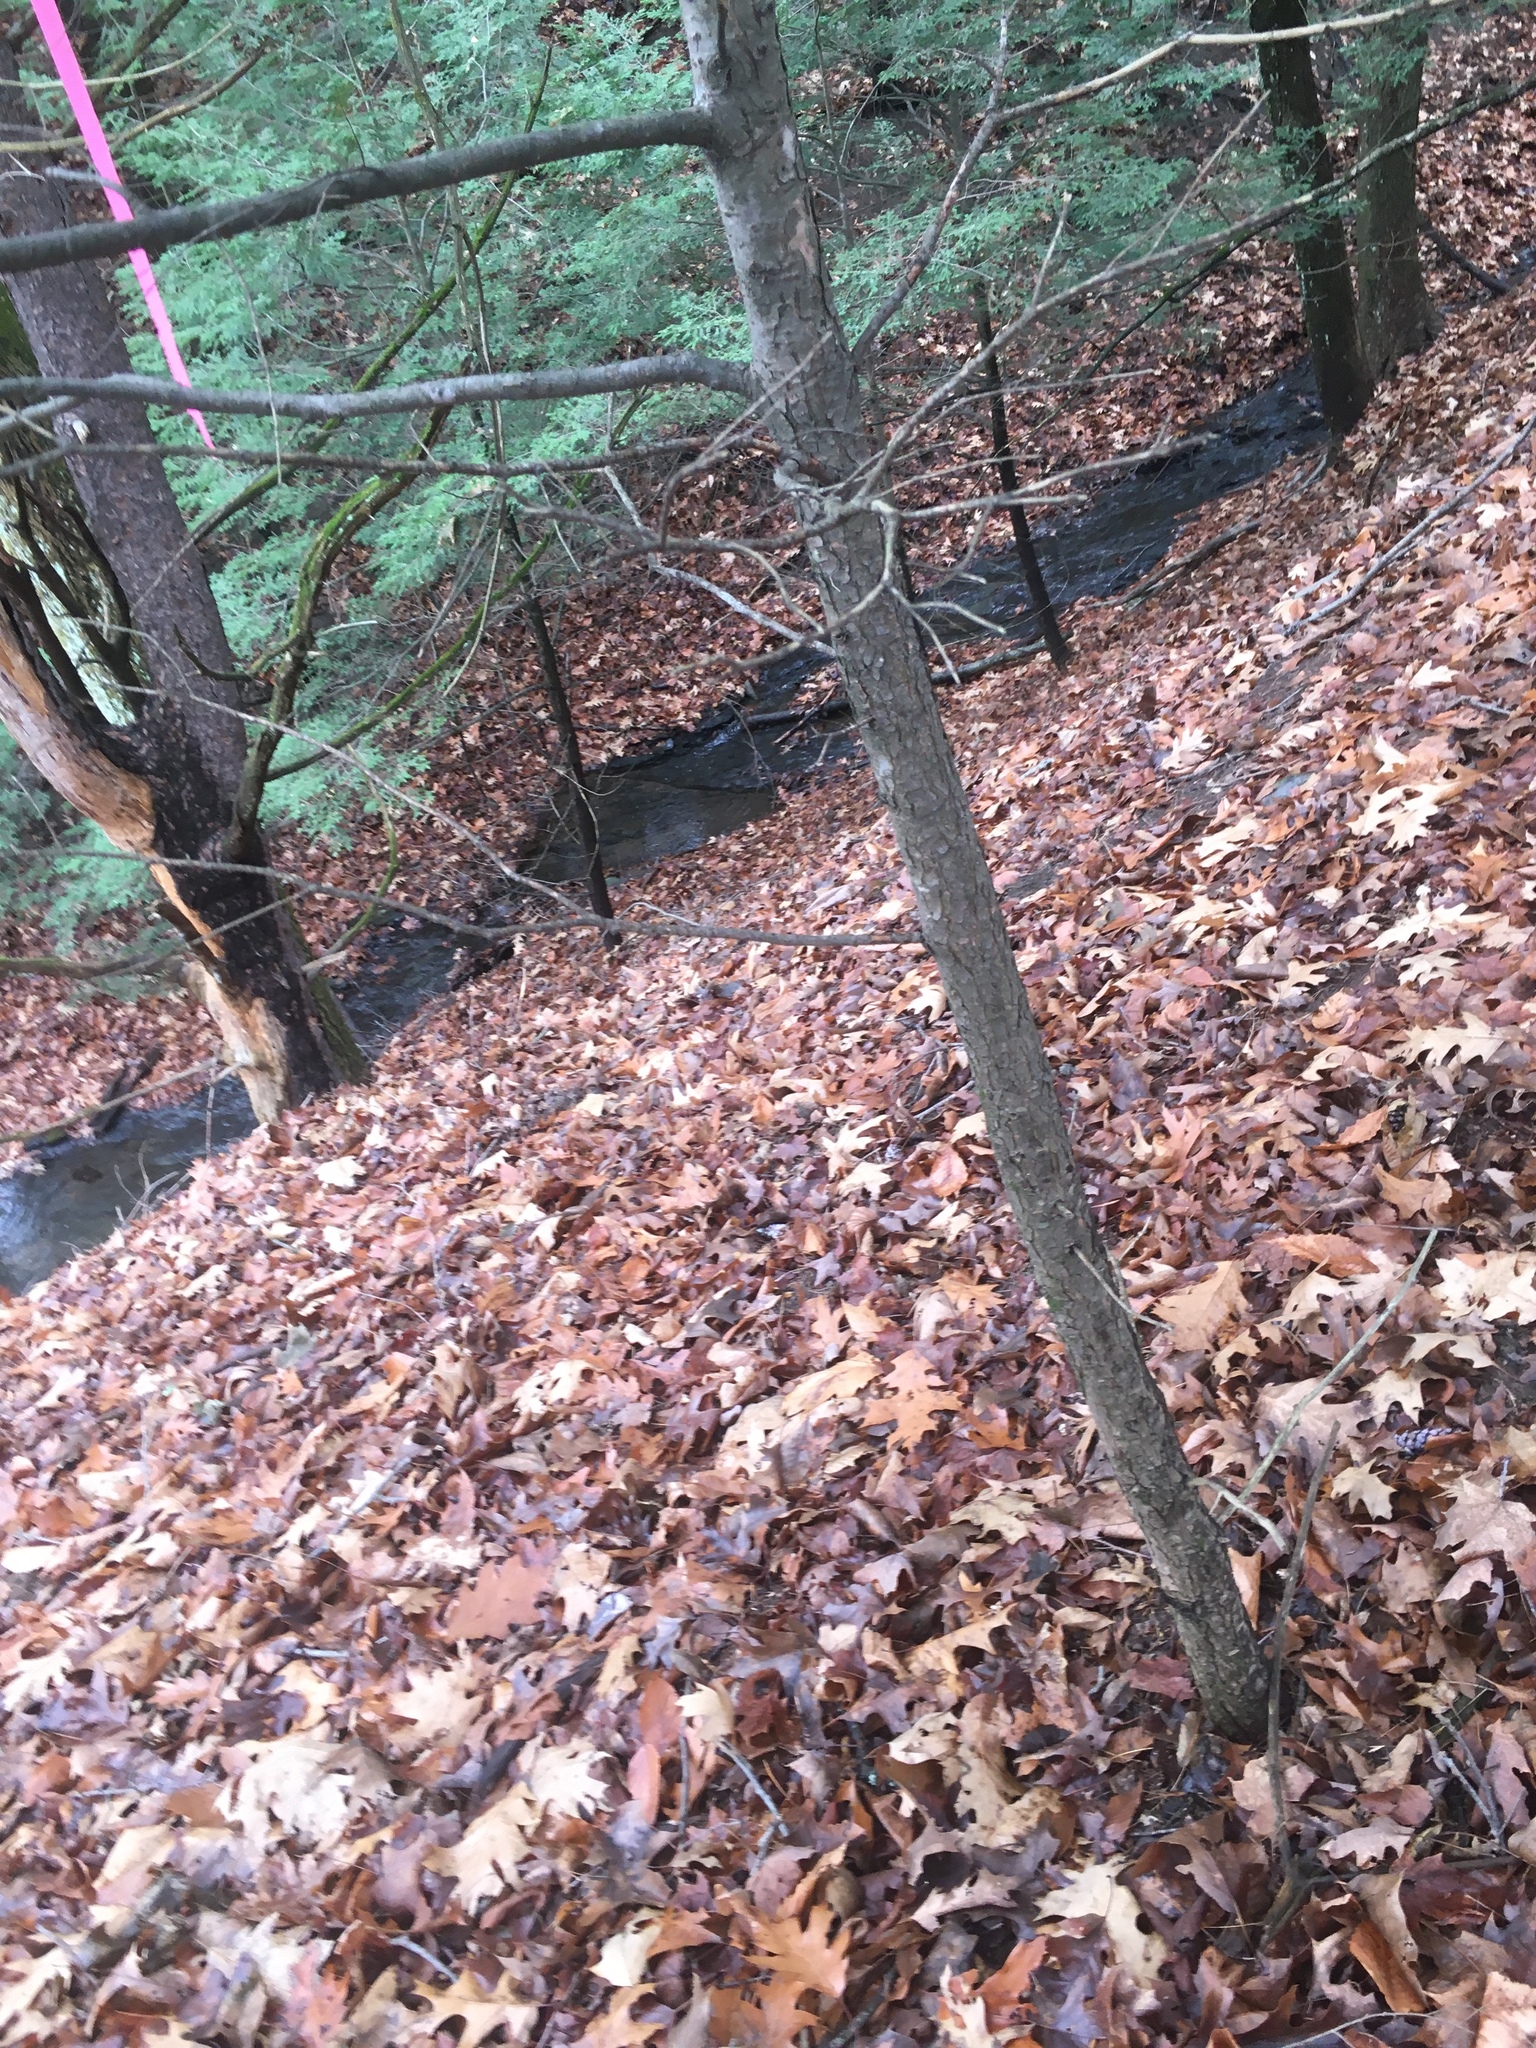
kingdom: Plantae
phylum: Tracheophyta
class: Pinopsida
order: Pinales
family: Pinaceae
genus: Tsuga
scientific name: Tsuga canadensis
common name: Eastern hemlock
